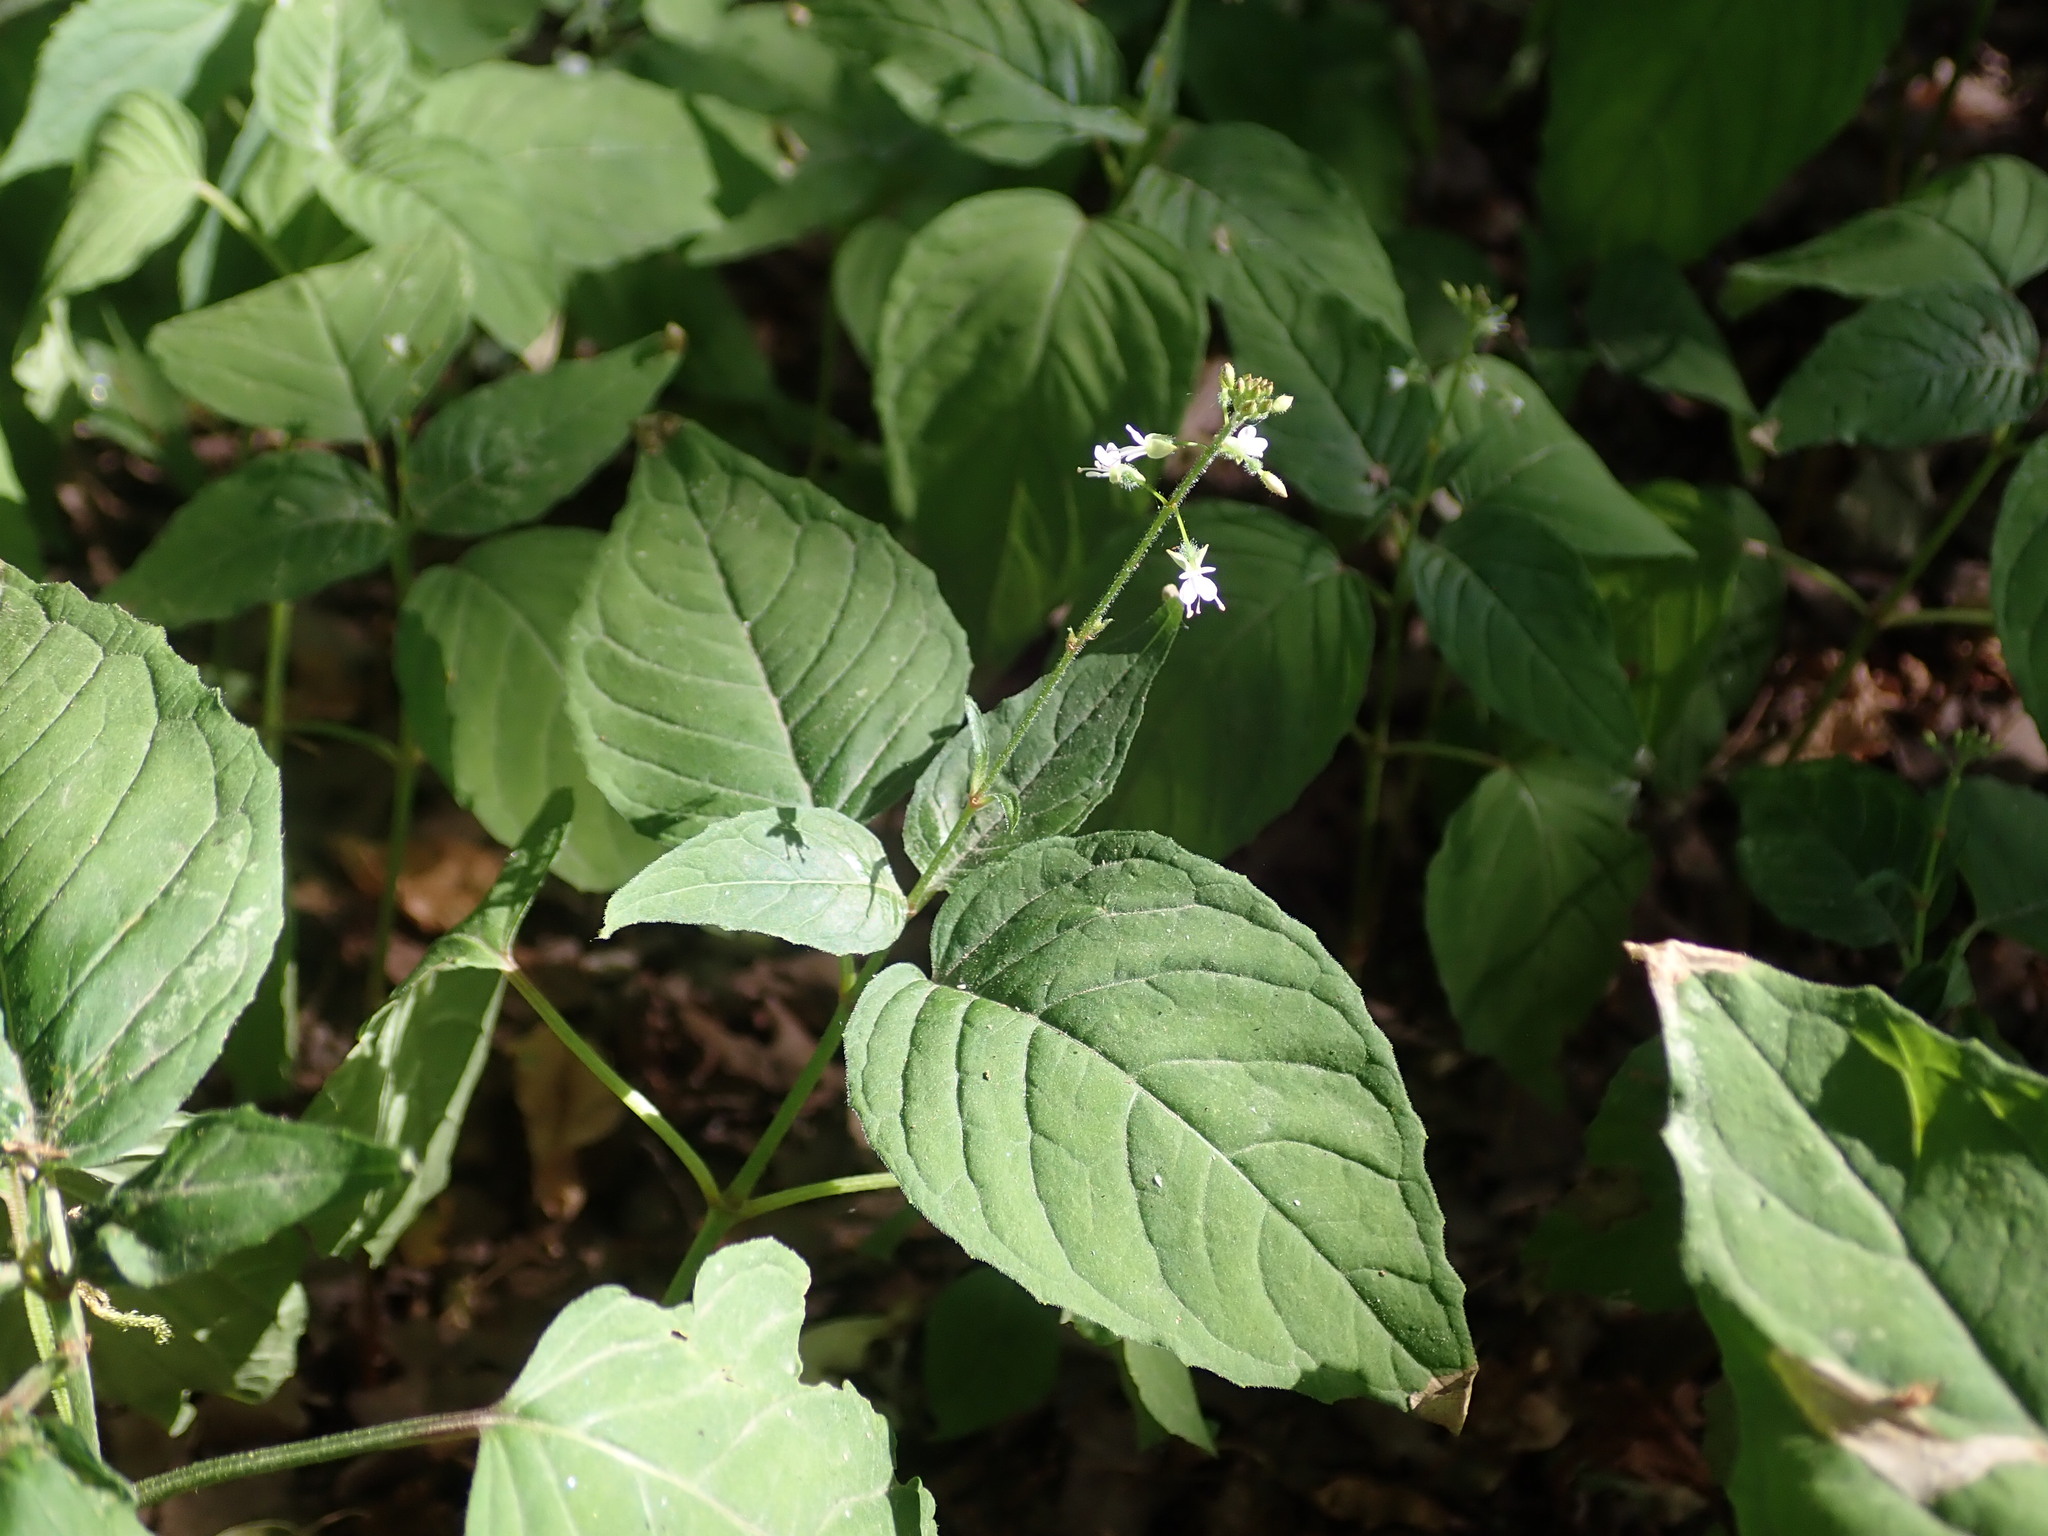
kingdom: Plantae
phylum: Tracheophyta
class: Magnoliopsida
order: Myrtales
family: Onagraceae
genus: Circaea
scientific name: Circaea lutetiana
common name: Enchanter's-nightshade
